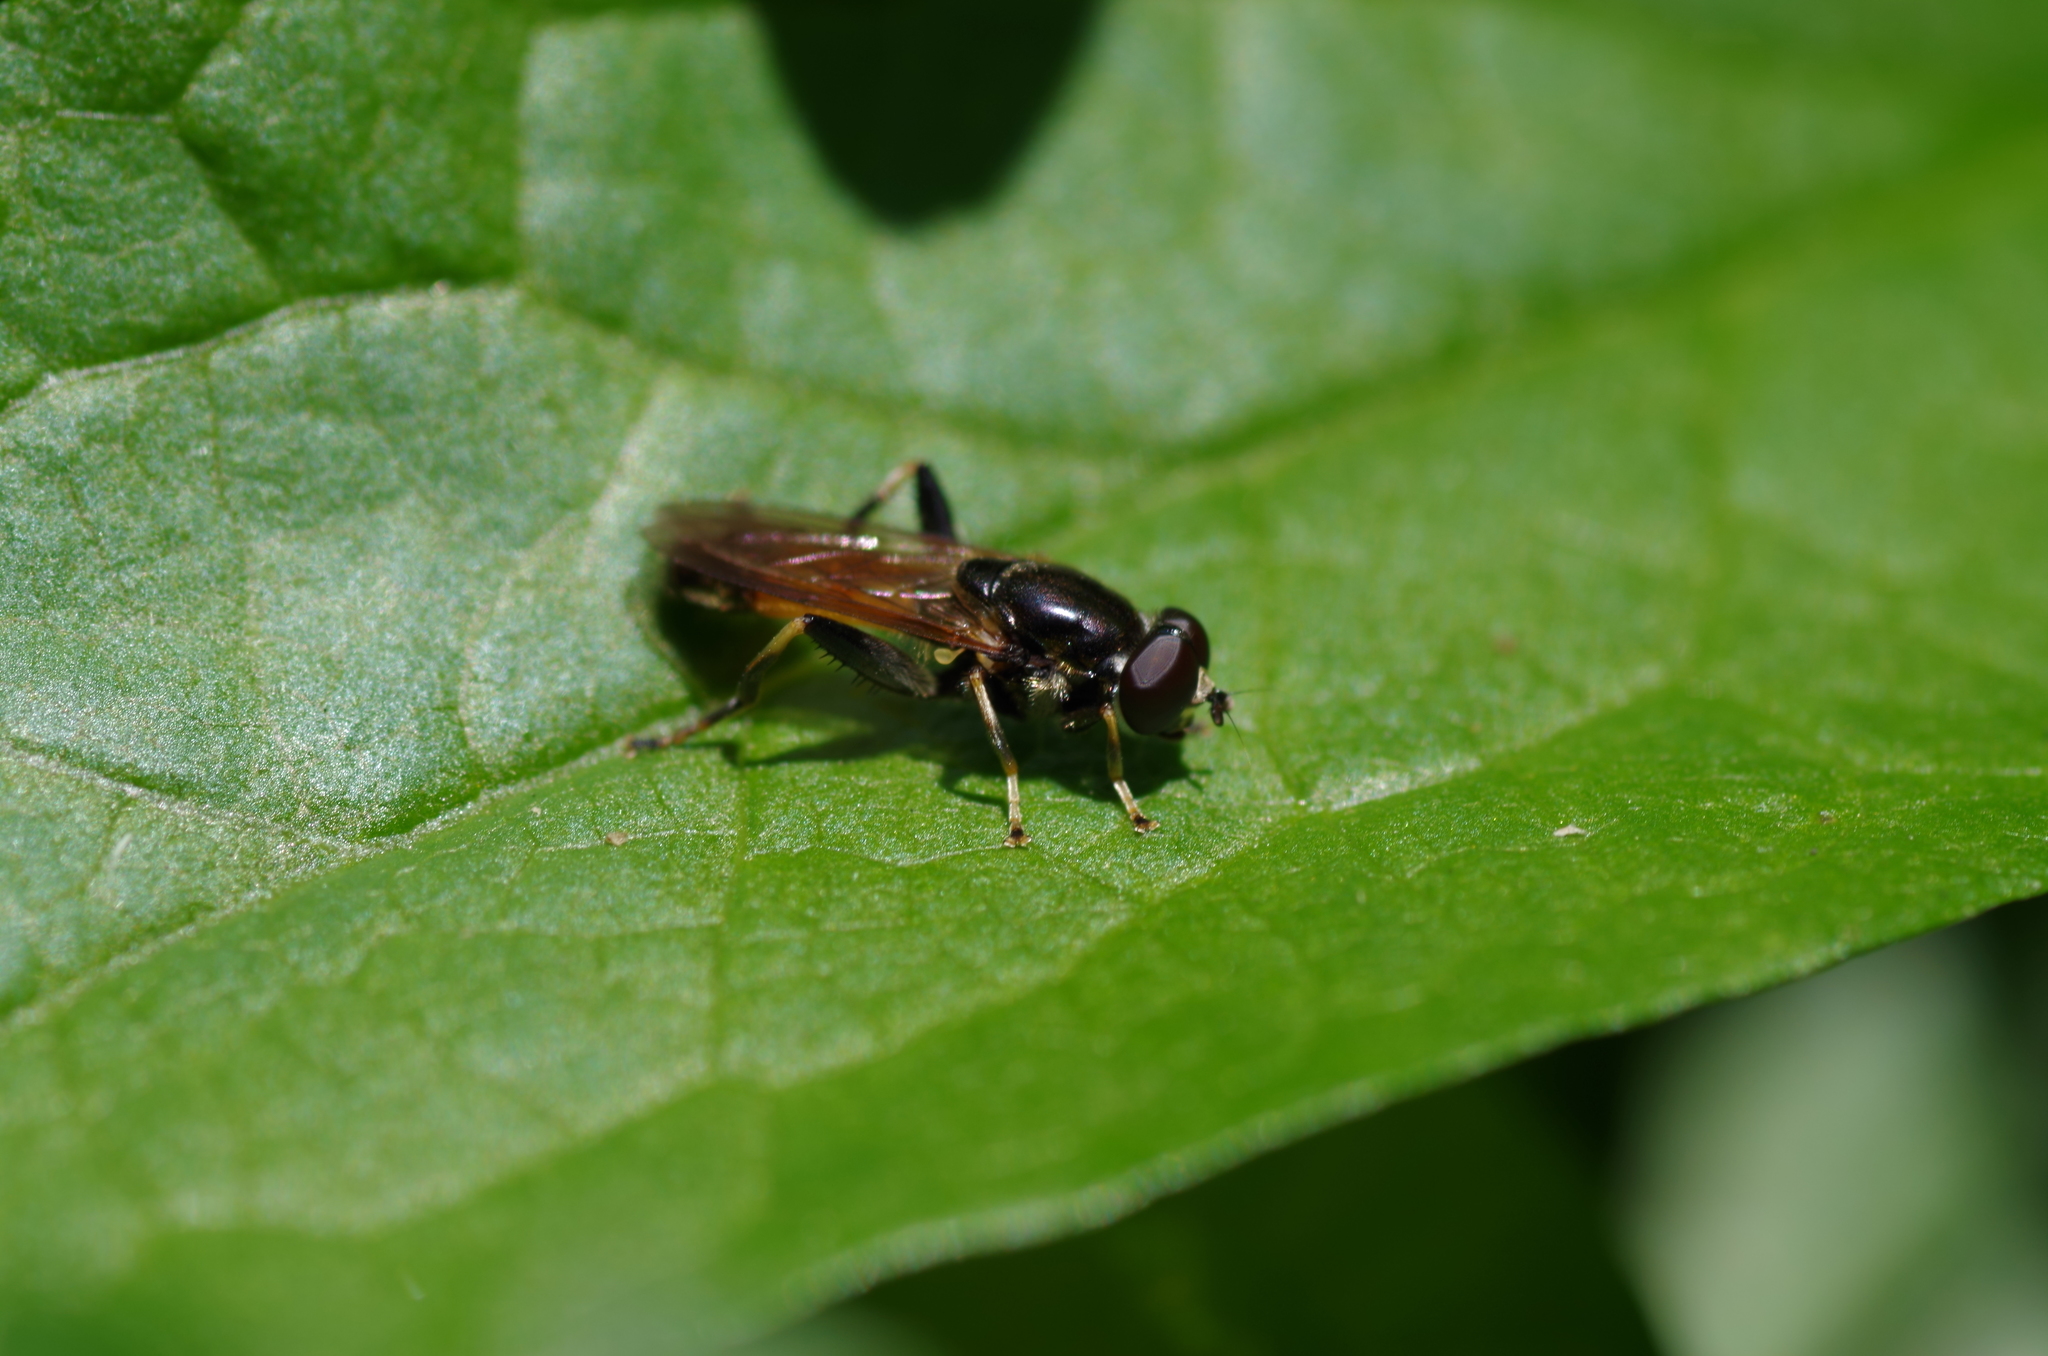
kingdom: Animalia
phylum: Arthropoda
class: Insecta
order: Diptera
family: Syrphidae
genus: Xylota
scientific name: Xylota segnis
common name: Brown-toed forest fly
